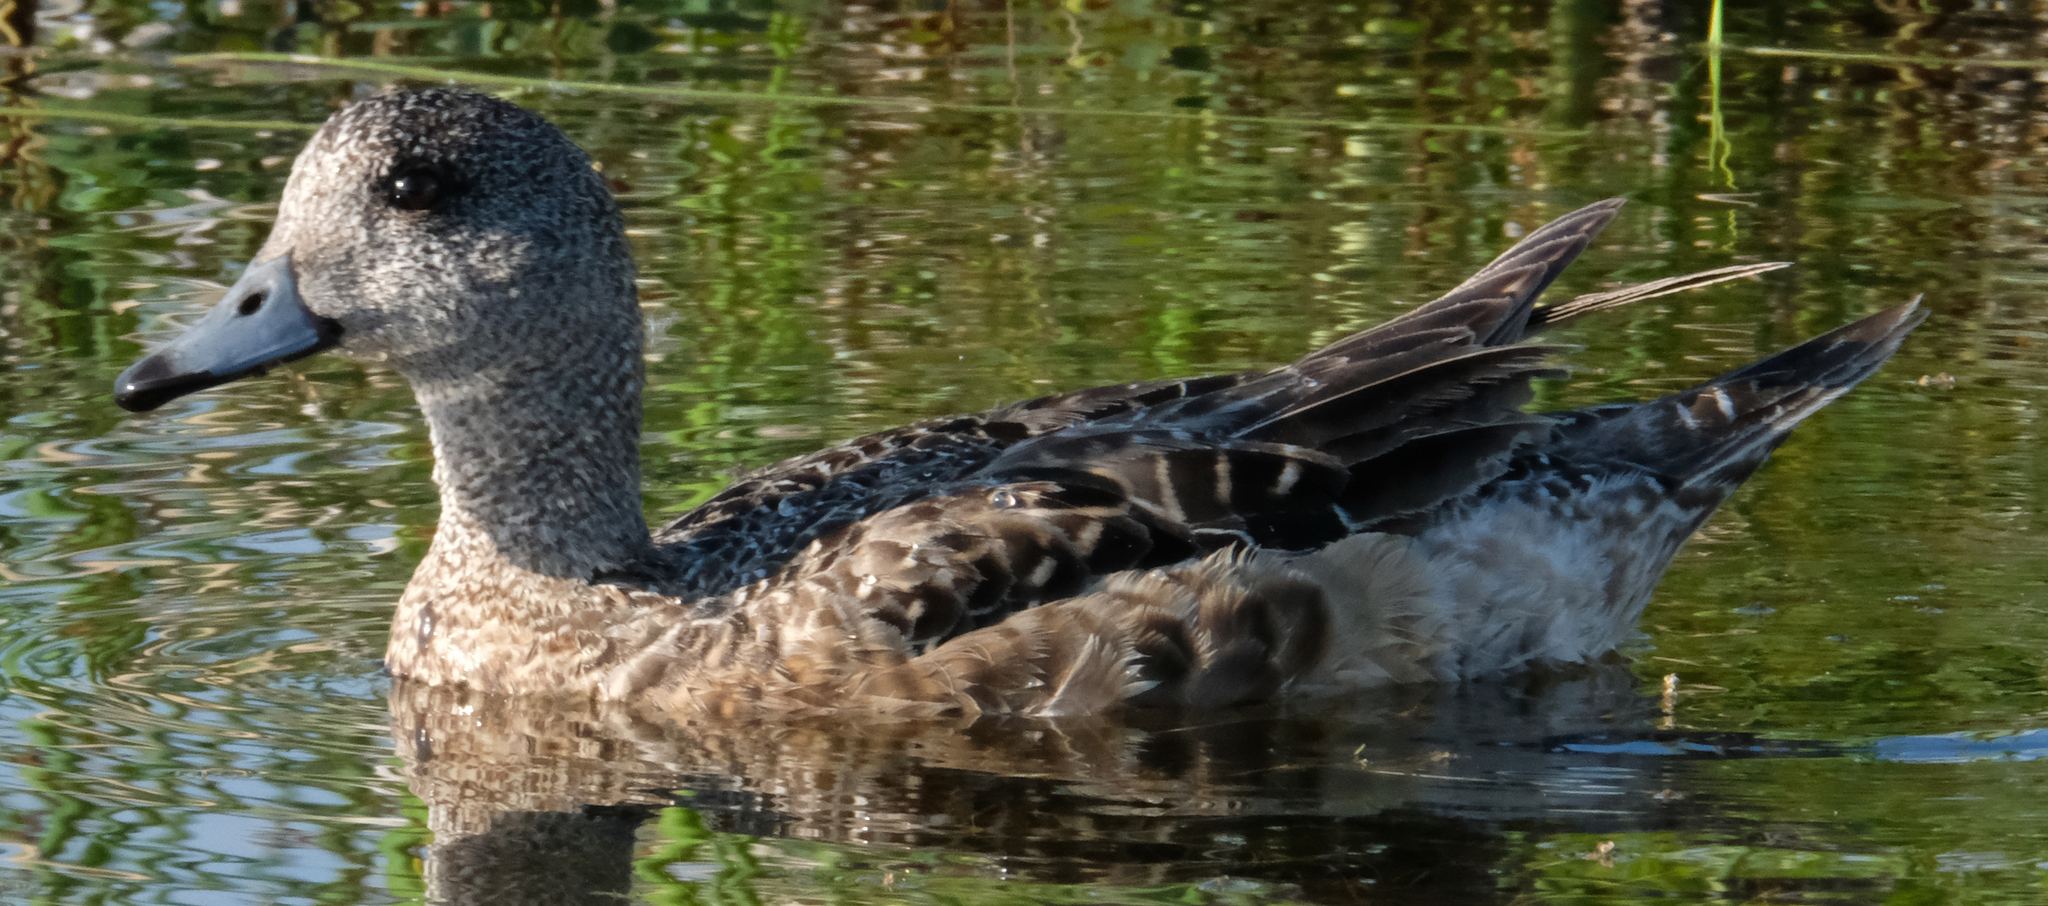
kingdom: Animalia
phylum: Chordata
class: Aves
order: Anseriformes
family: Anatidae
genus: Mareca
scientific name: Mareca americana
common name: American wigeon
